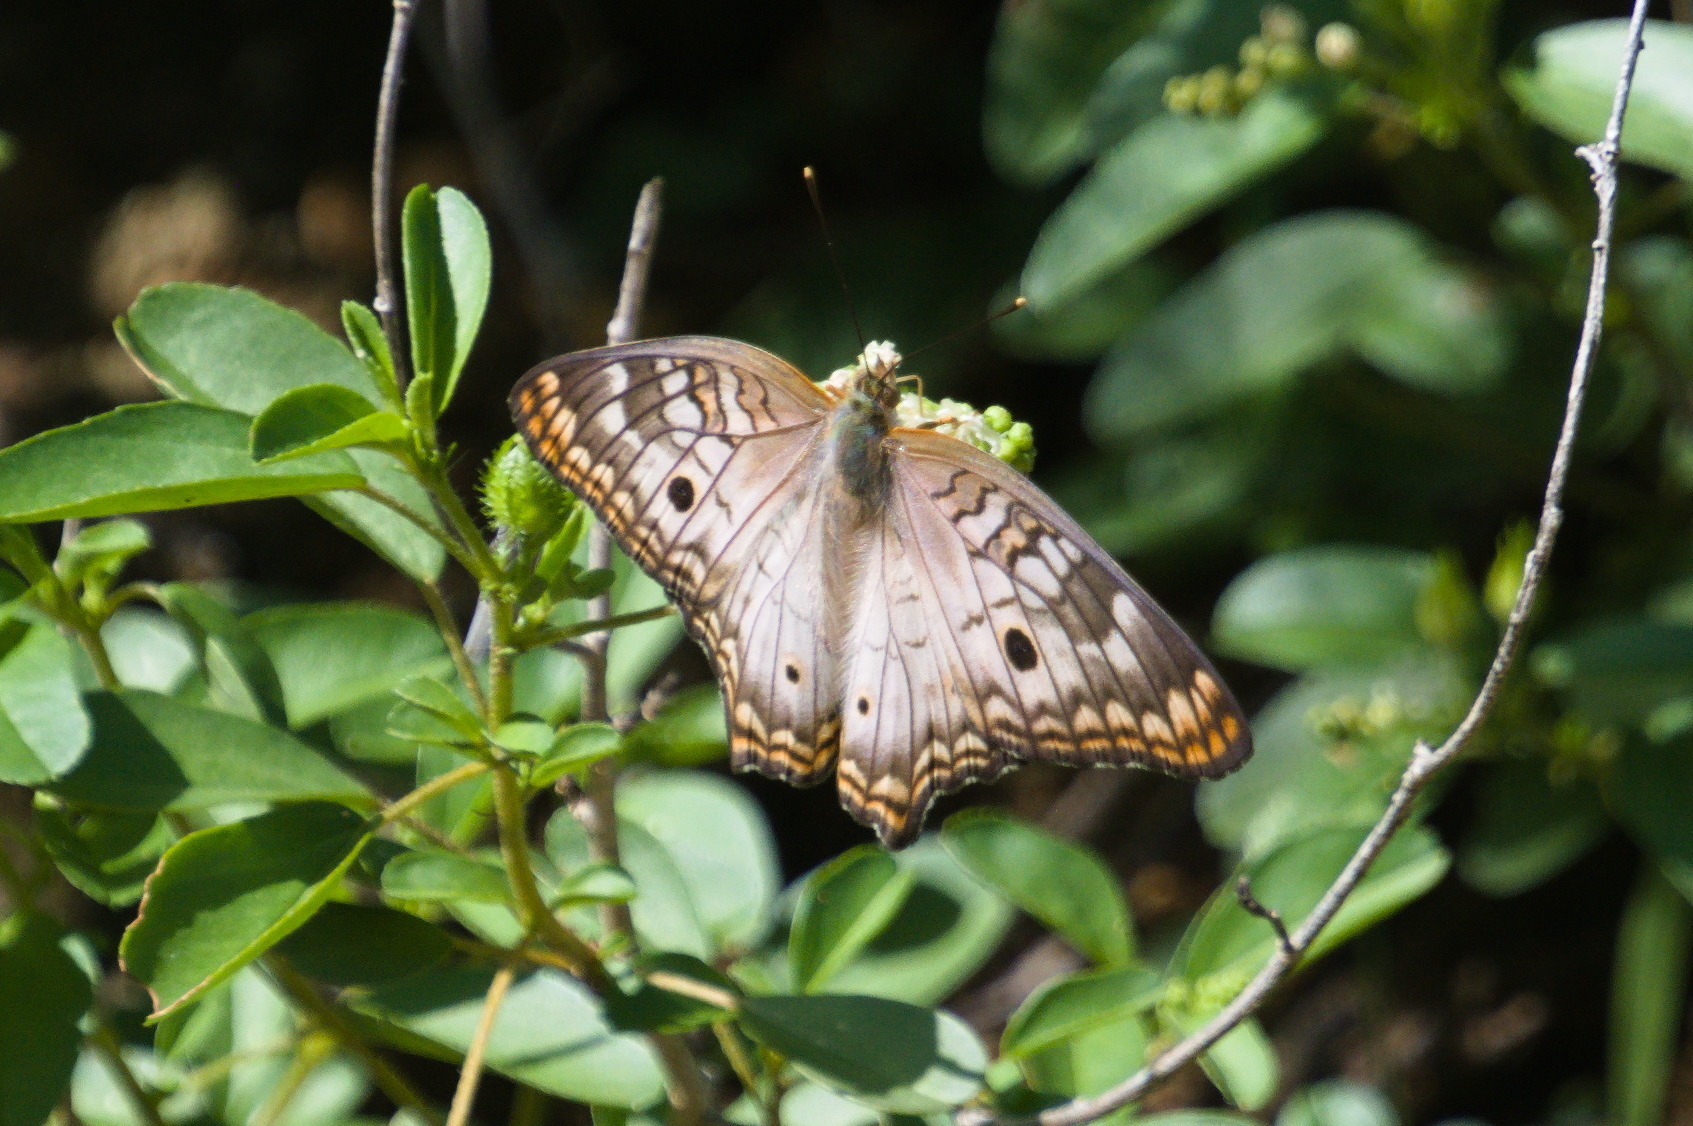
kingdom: Animalia
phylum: Arthropoda
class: Insecta
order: Lepidoptera
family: Nymphalidae
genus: Anartia
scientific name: Anartia jatrophae
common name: White peacock
